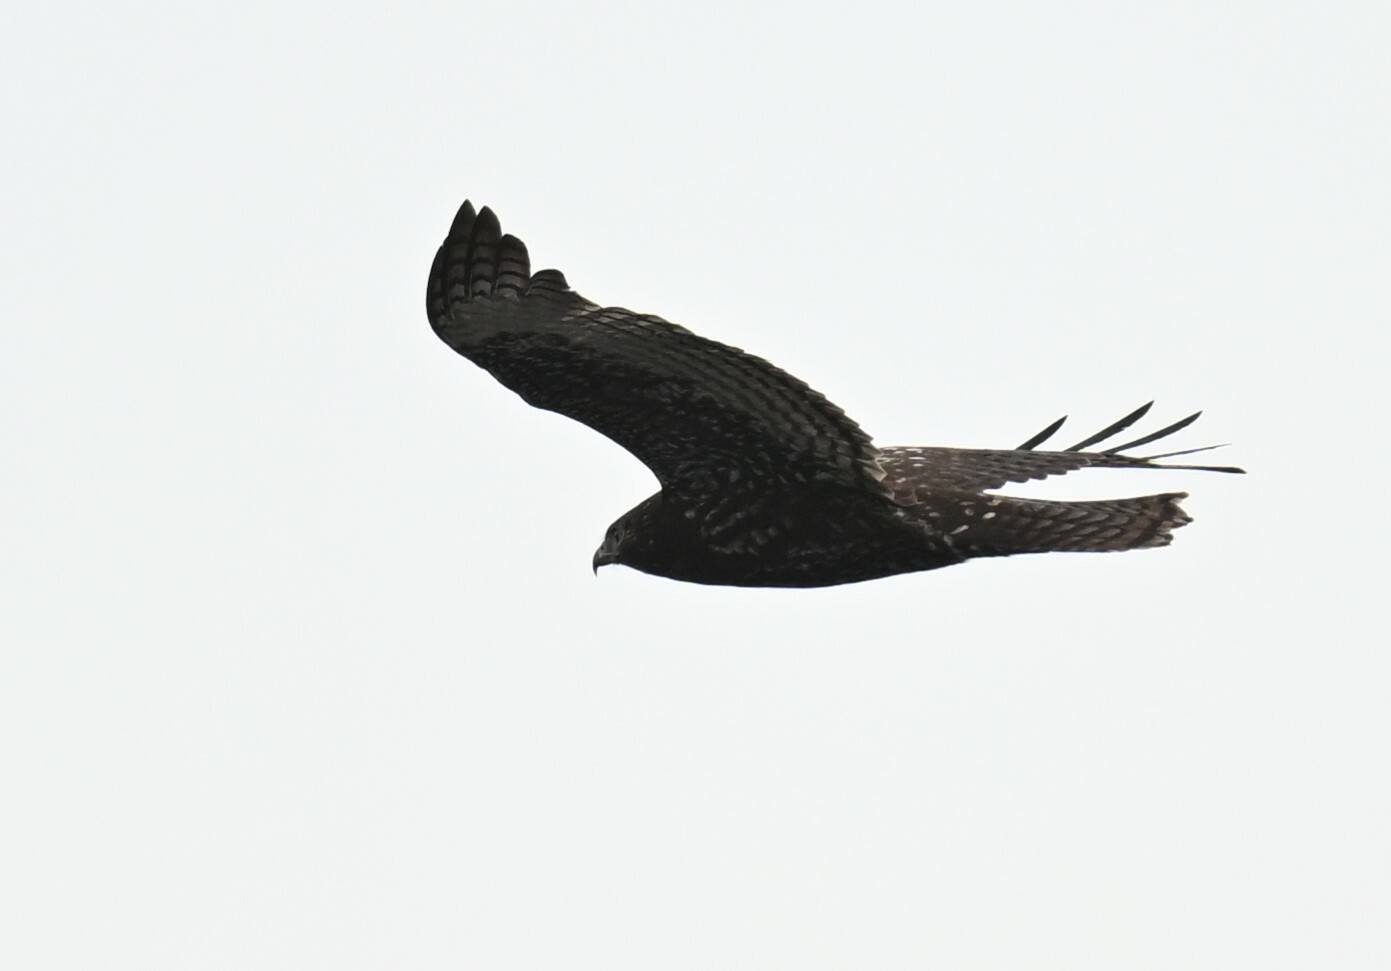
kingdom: Animalia
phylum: Chordata
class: Aves
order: Accipitriformes
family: Accipitridae
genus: Buteo
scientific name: Buteo jamaicensis
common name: Red-tailed hawk
